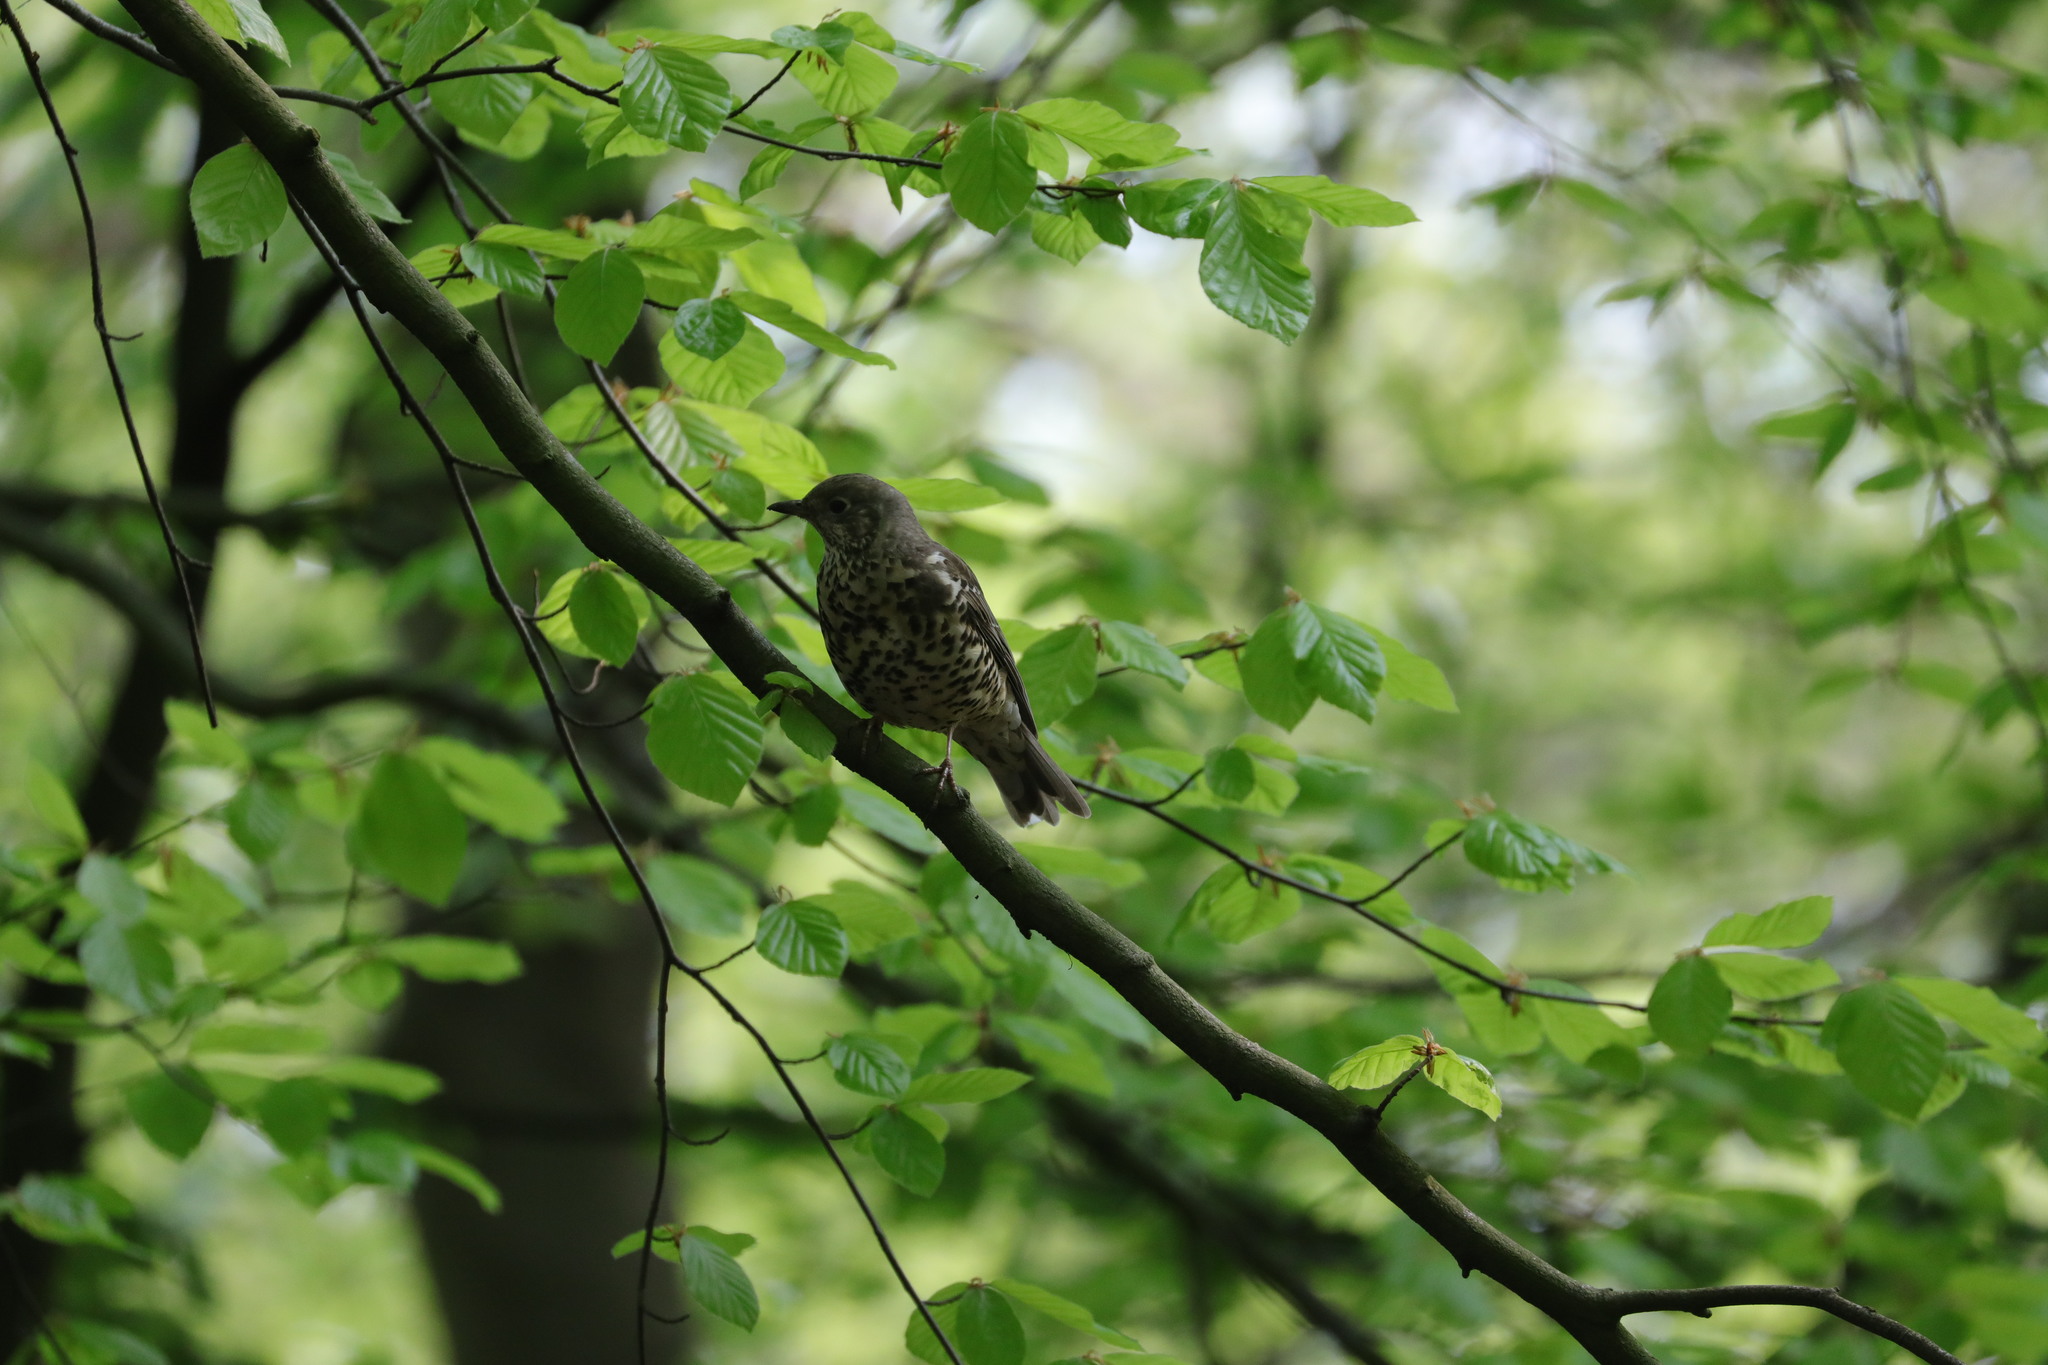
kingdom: Animalia
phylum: Chordata
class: Aves
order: Passeriformes
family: Turdidae
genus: Turdus
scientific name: Turdus viscivorus
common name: Mistle thrush
